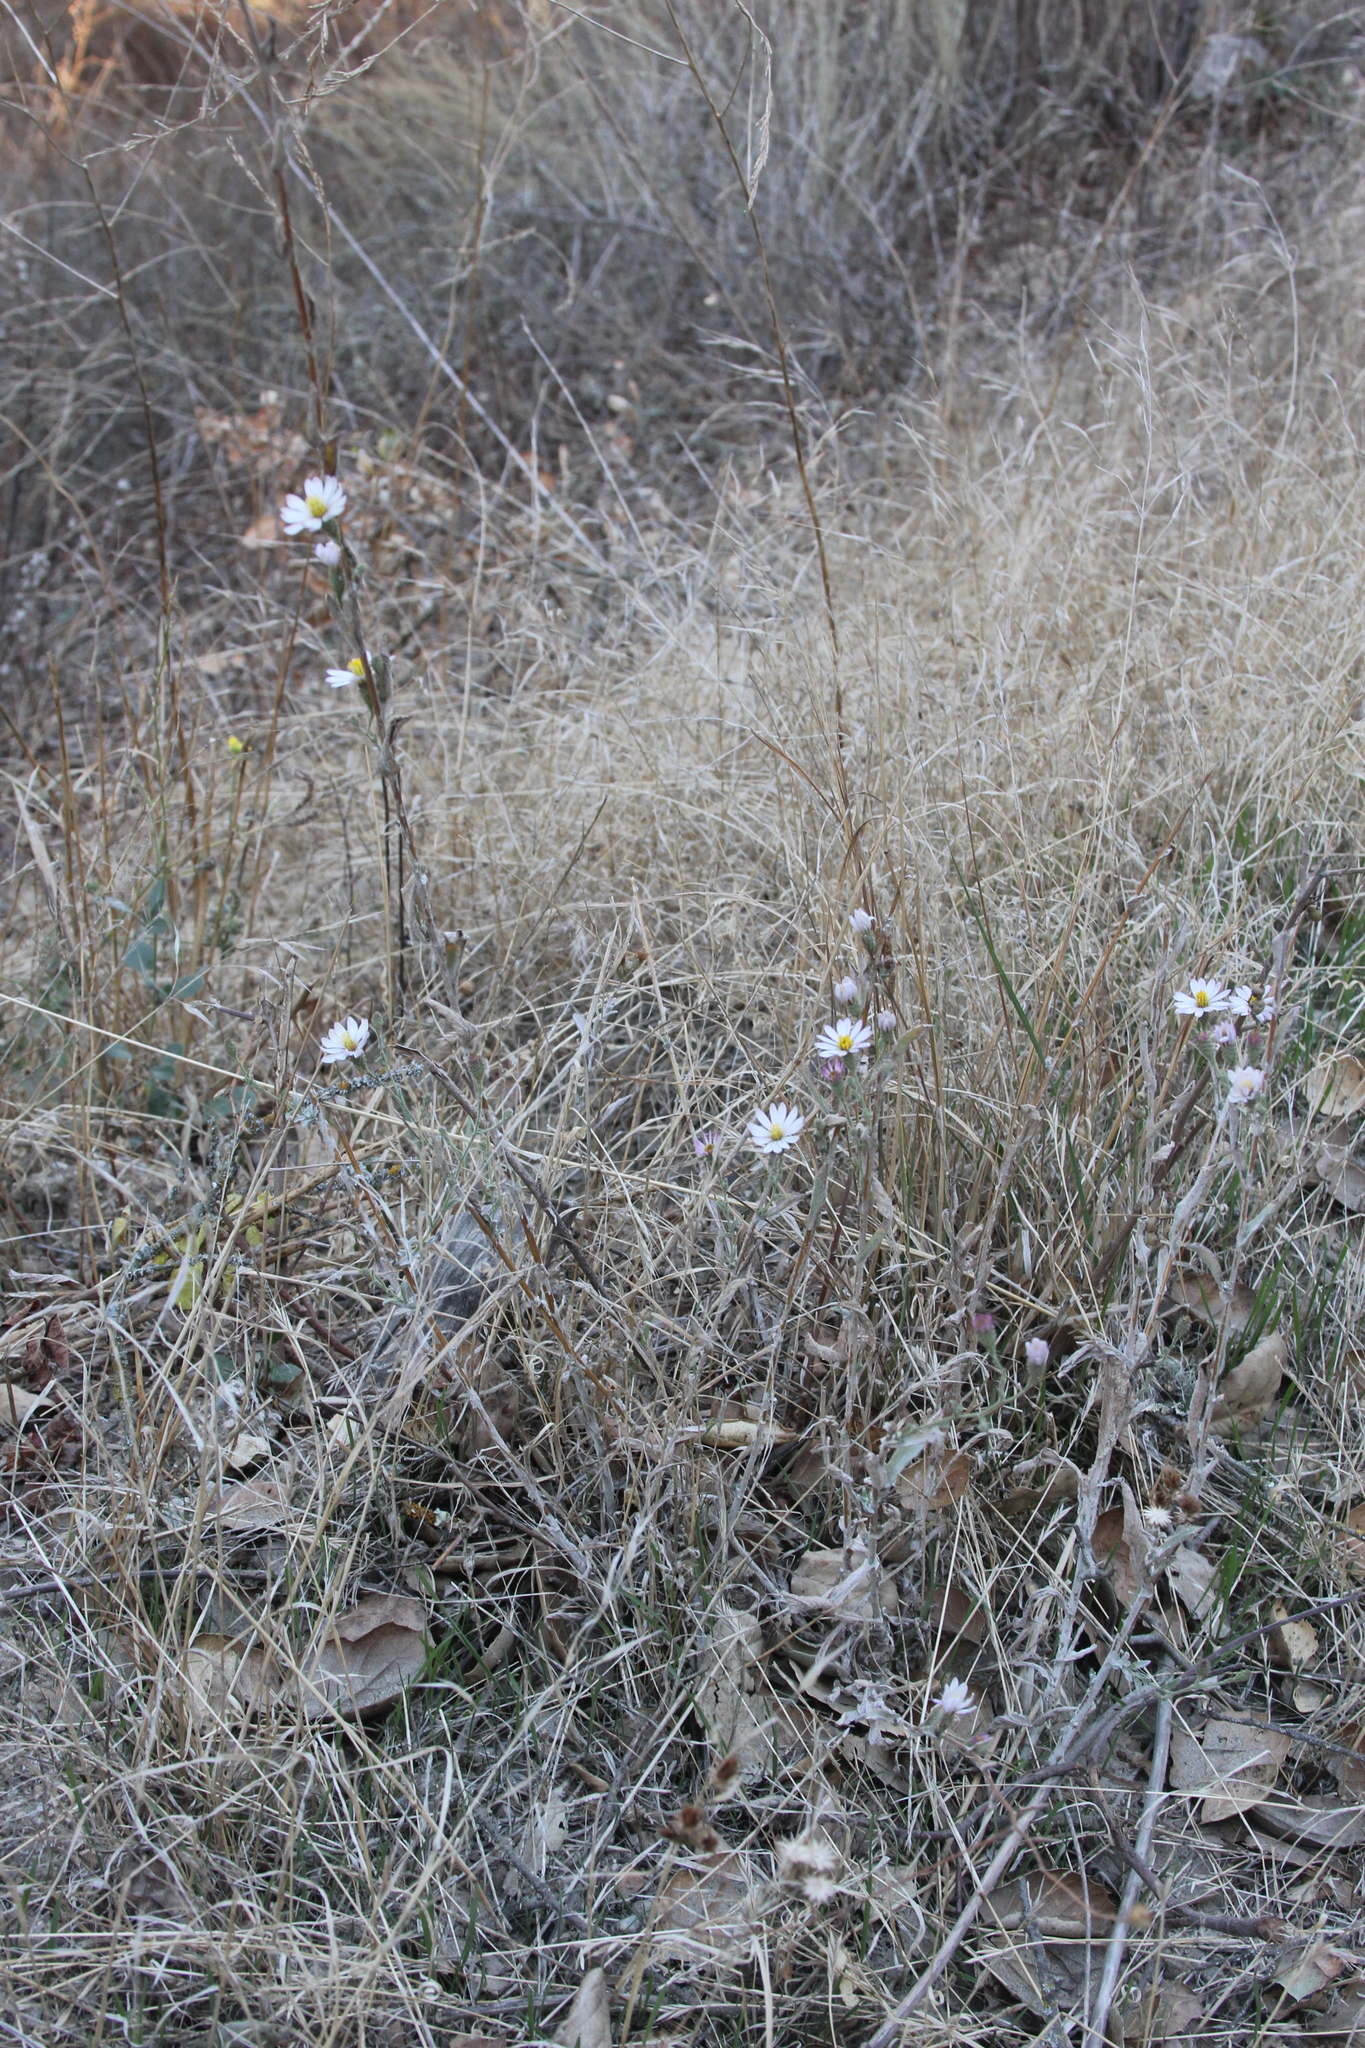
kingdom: Plantae
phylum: Tracheophyta
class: Magnoliopsida
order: Asterales
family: Asteraceae
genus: Corethrogyne
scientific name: Corethrogyne filaginifolia
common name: Sand-aster
